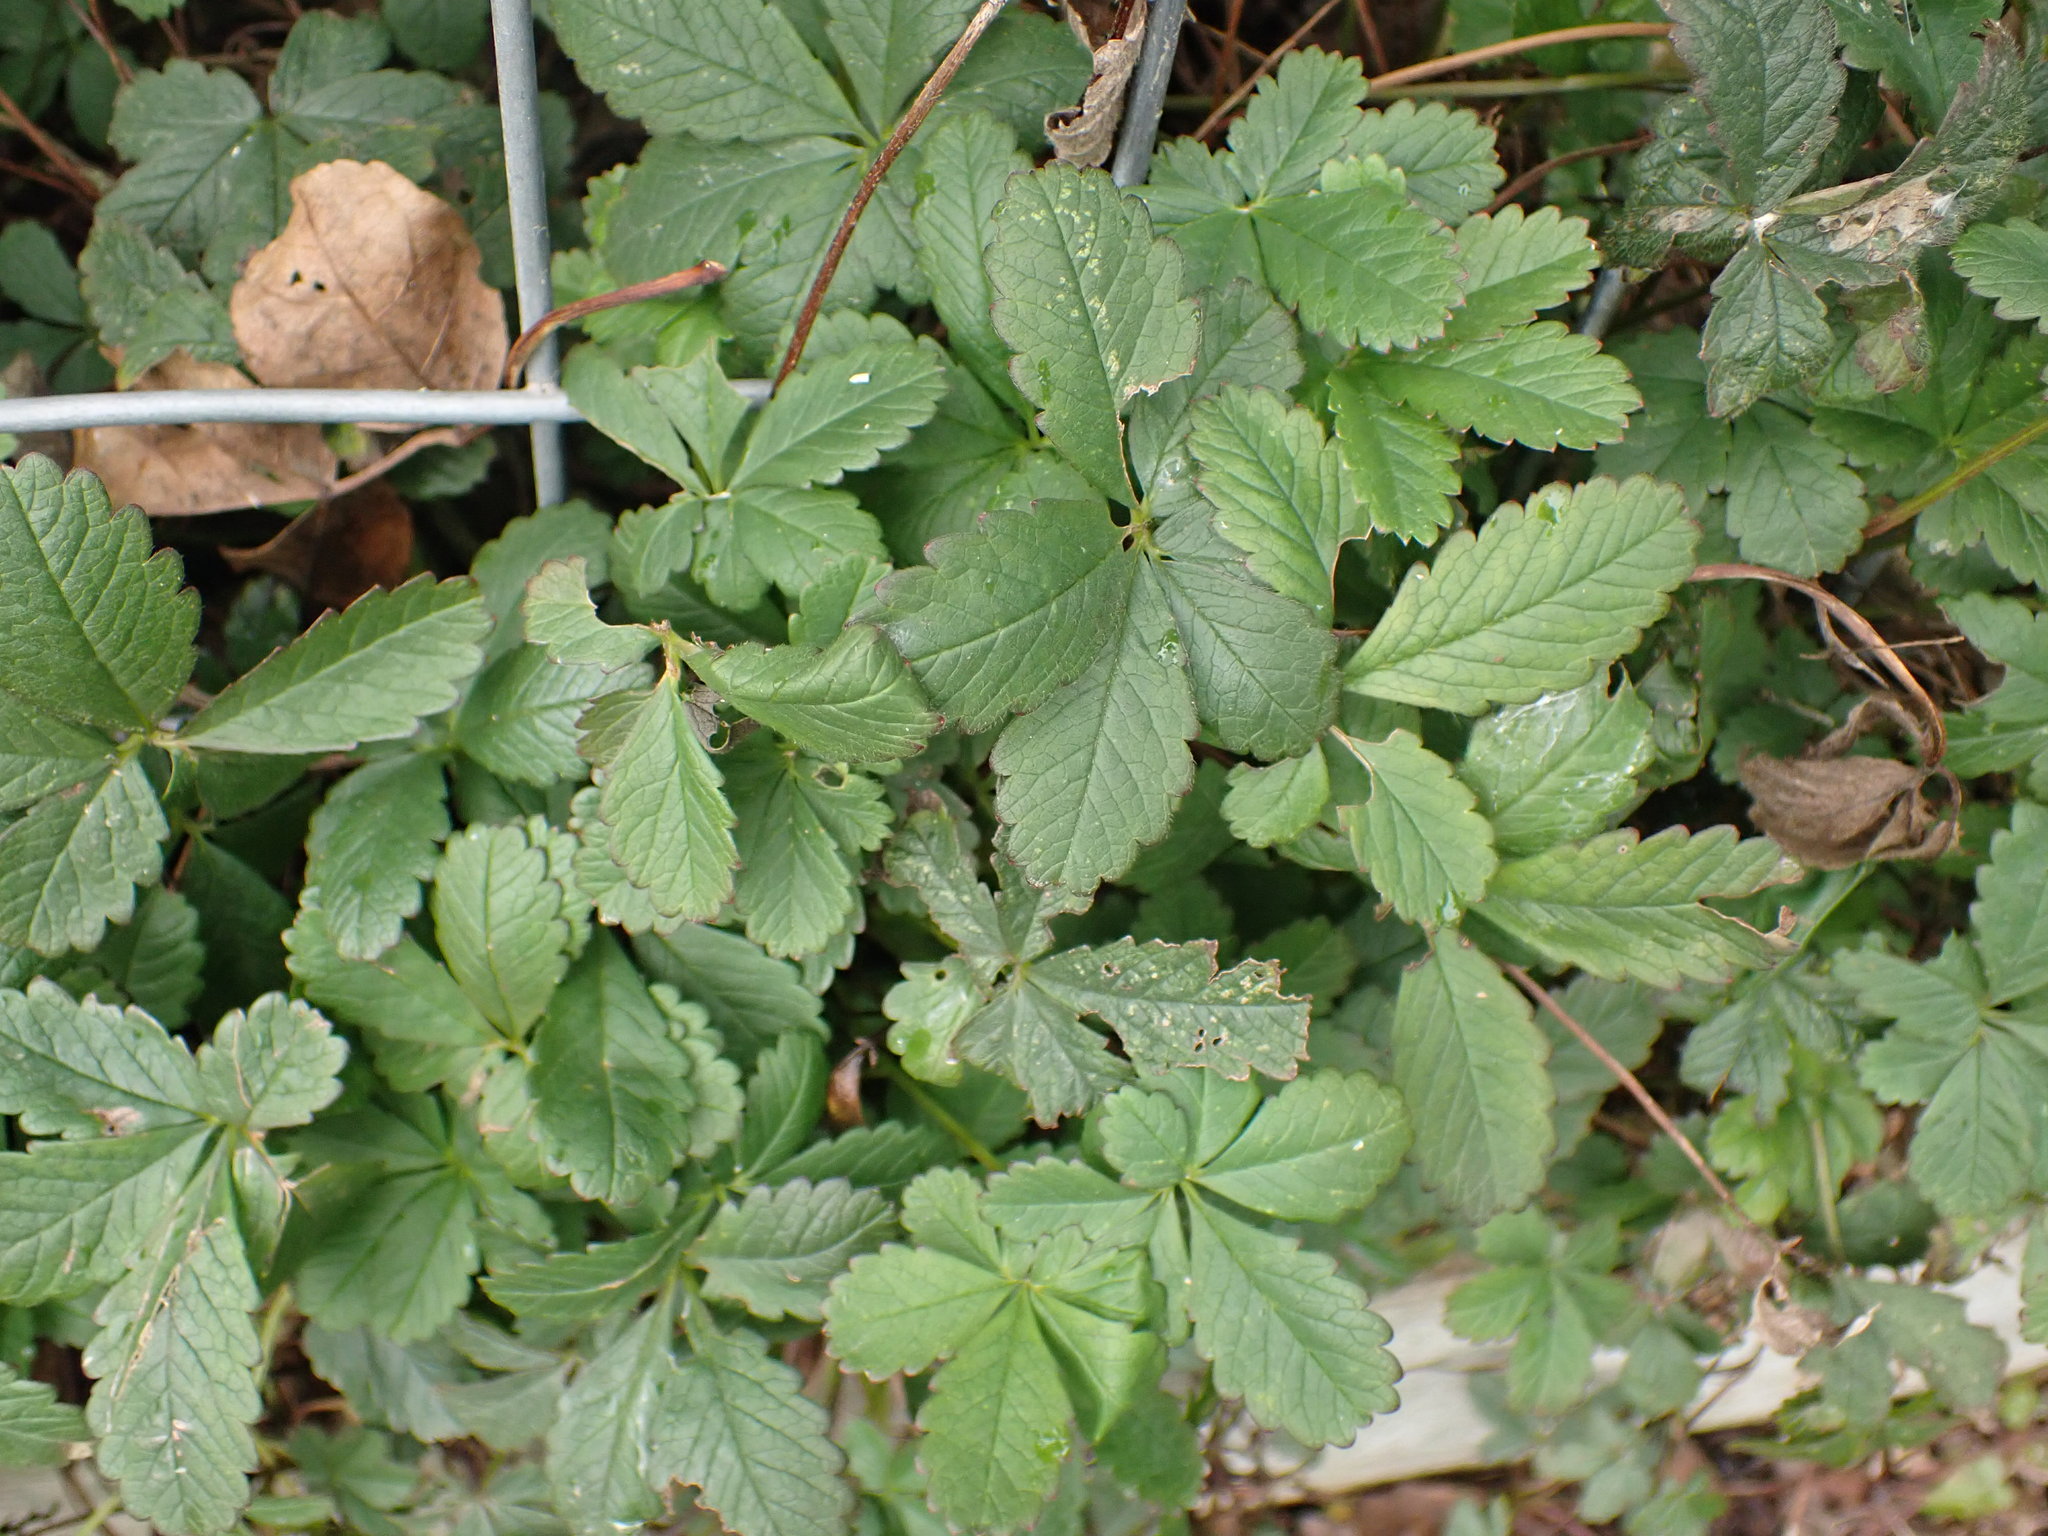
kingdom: Plantae
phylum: Tracheophyta
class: Magnoliopsida
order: Rosales
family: Rosaceae
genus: Potentilla
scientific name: Potentilla reptans
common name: Creeping cinquefoil
